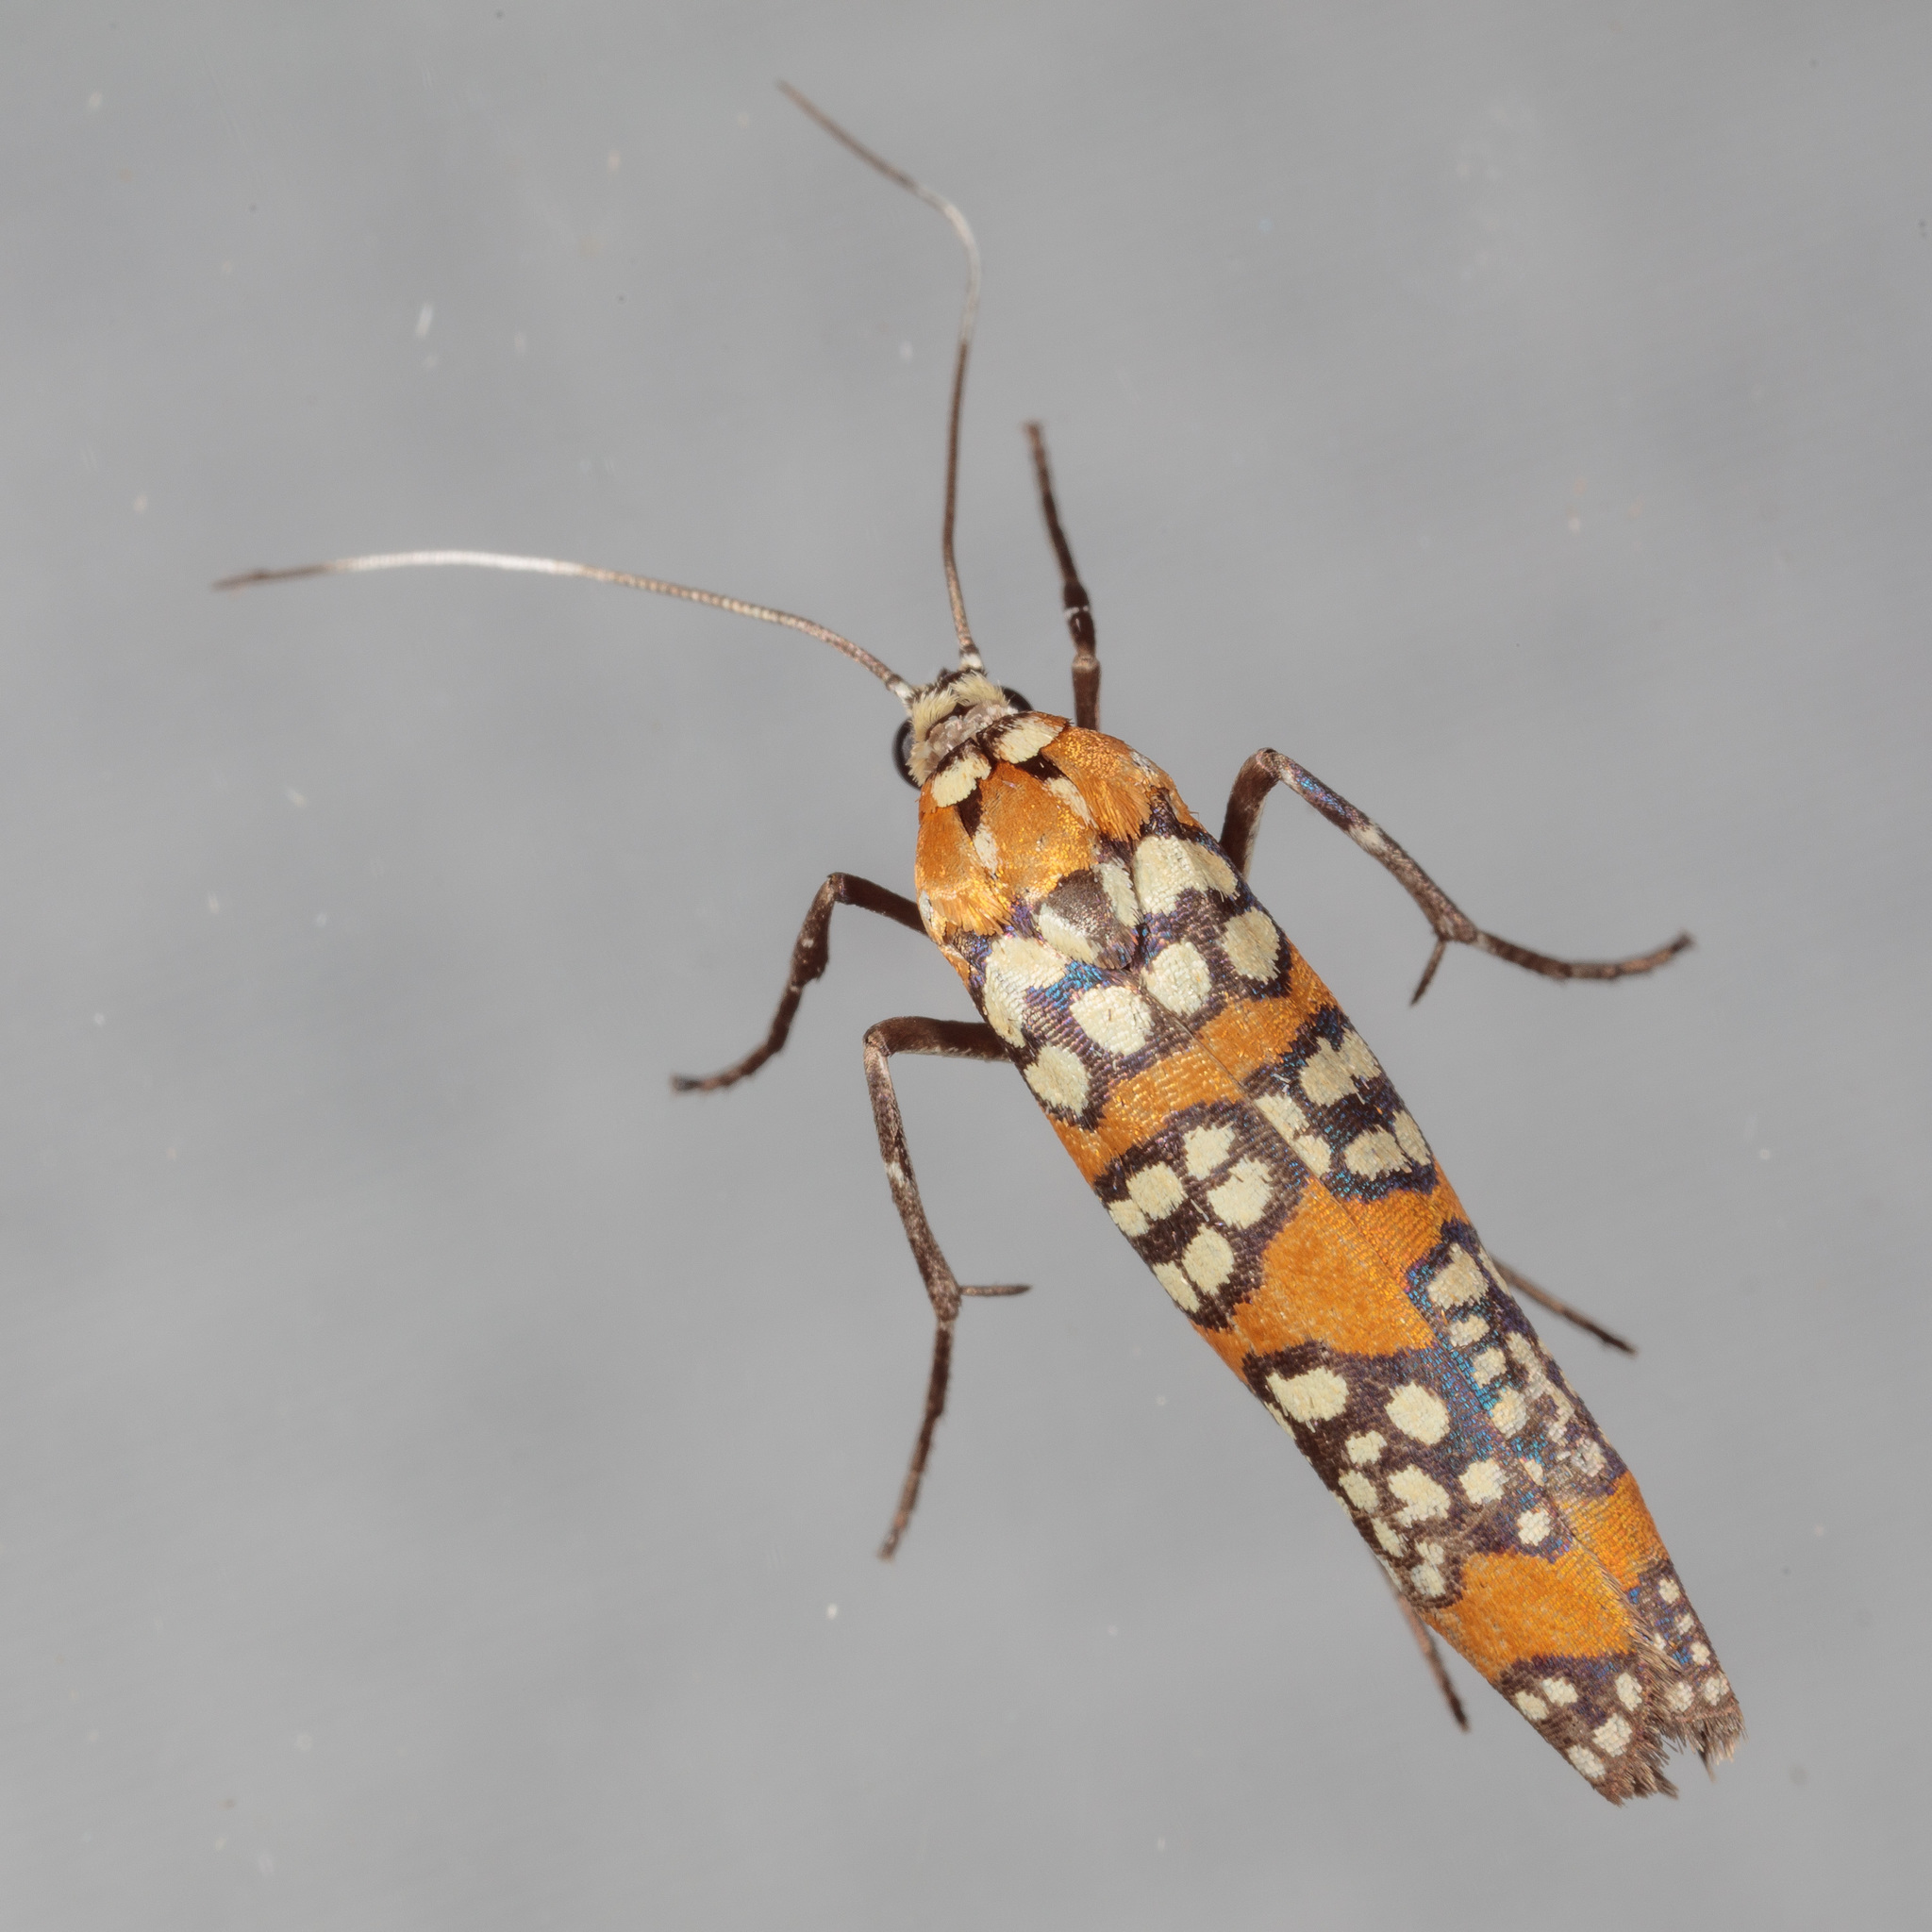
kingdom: Animalia
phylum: Arthropoda
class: Insecta
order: Lepidoptera
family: Attevidae
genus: Atteva
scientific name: Atteva punctella
